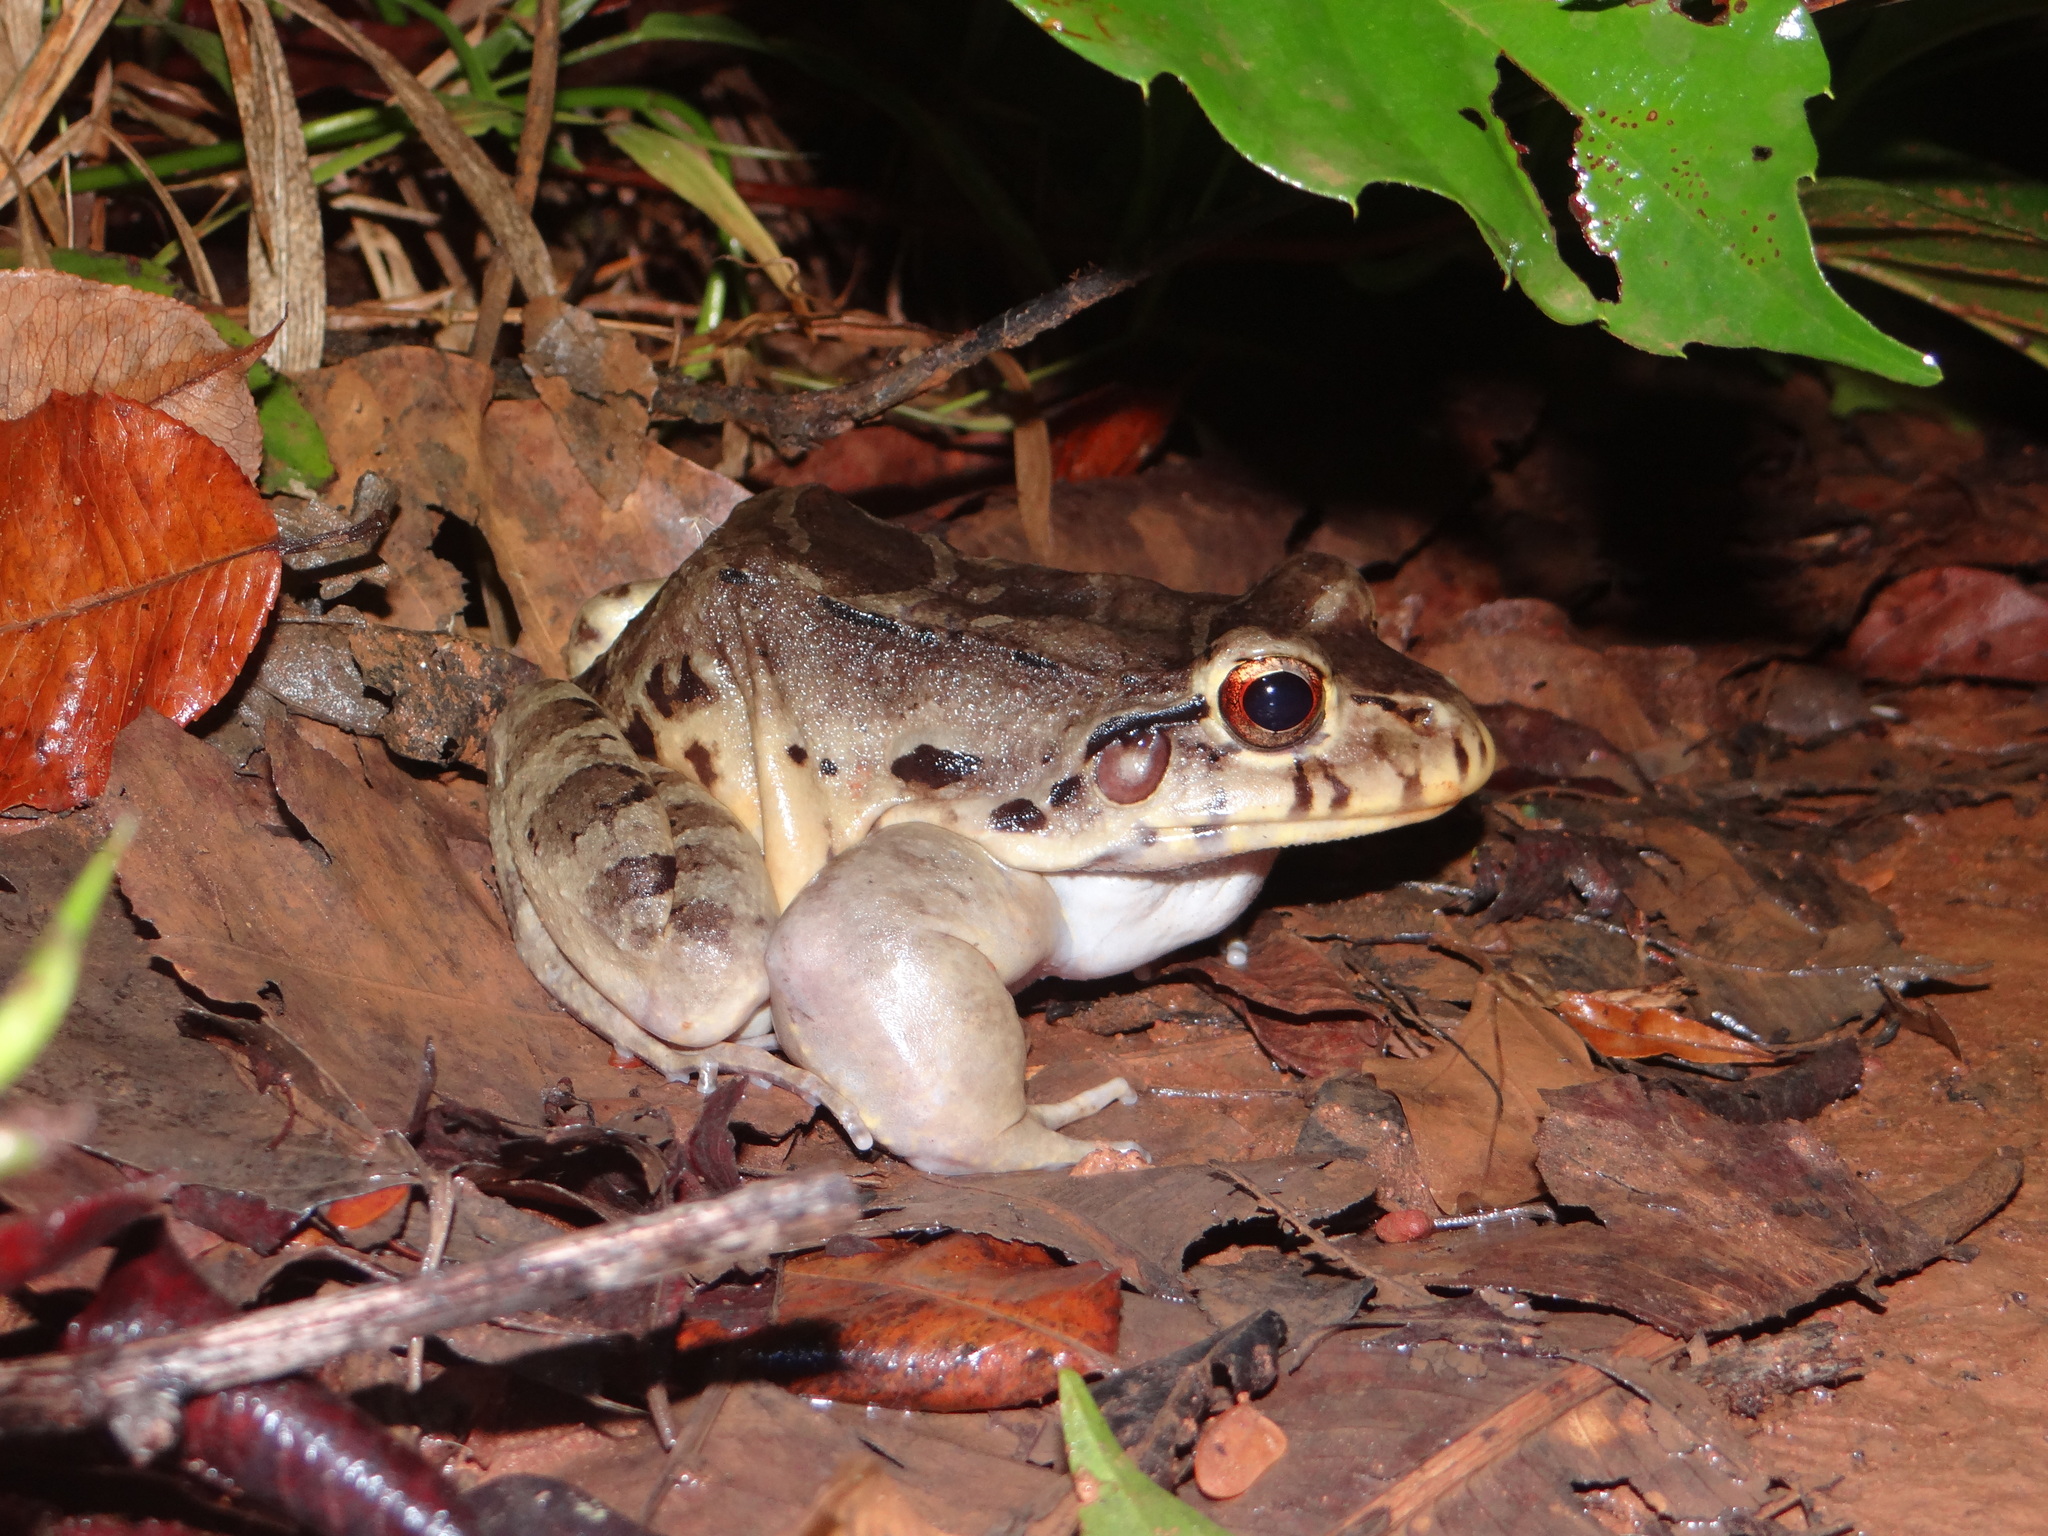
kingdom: Animalia
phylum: Chordata
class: Amphibia
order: Anura
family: Leptodactylidae
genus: Leptodactylus
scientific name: Leptodactylus knudseni
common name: Knudsen's frog
